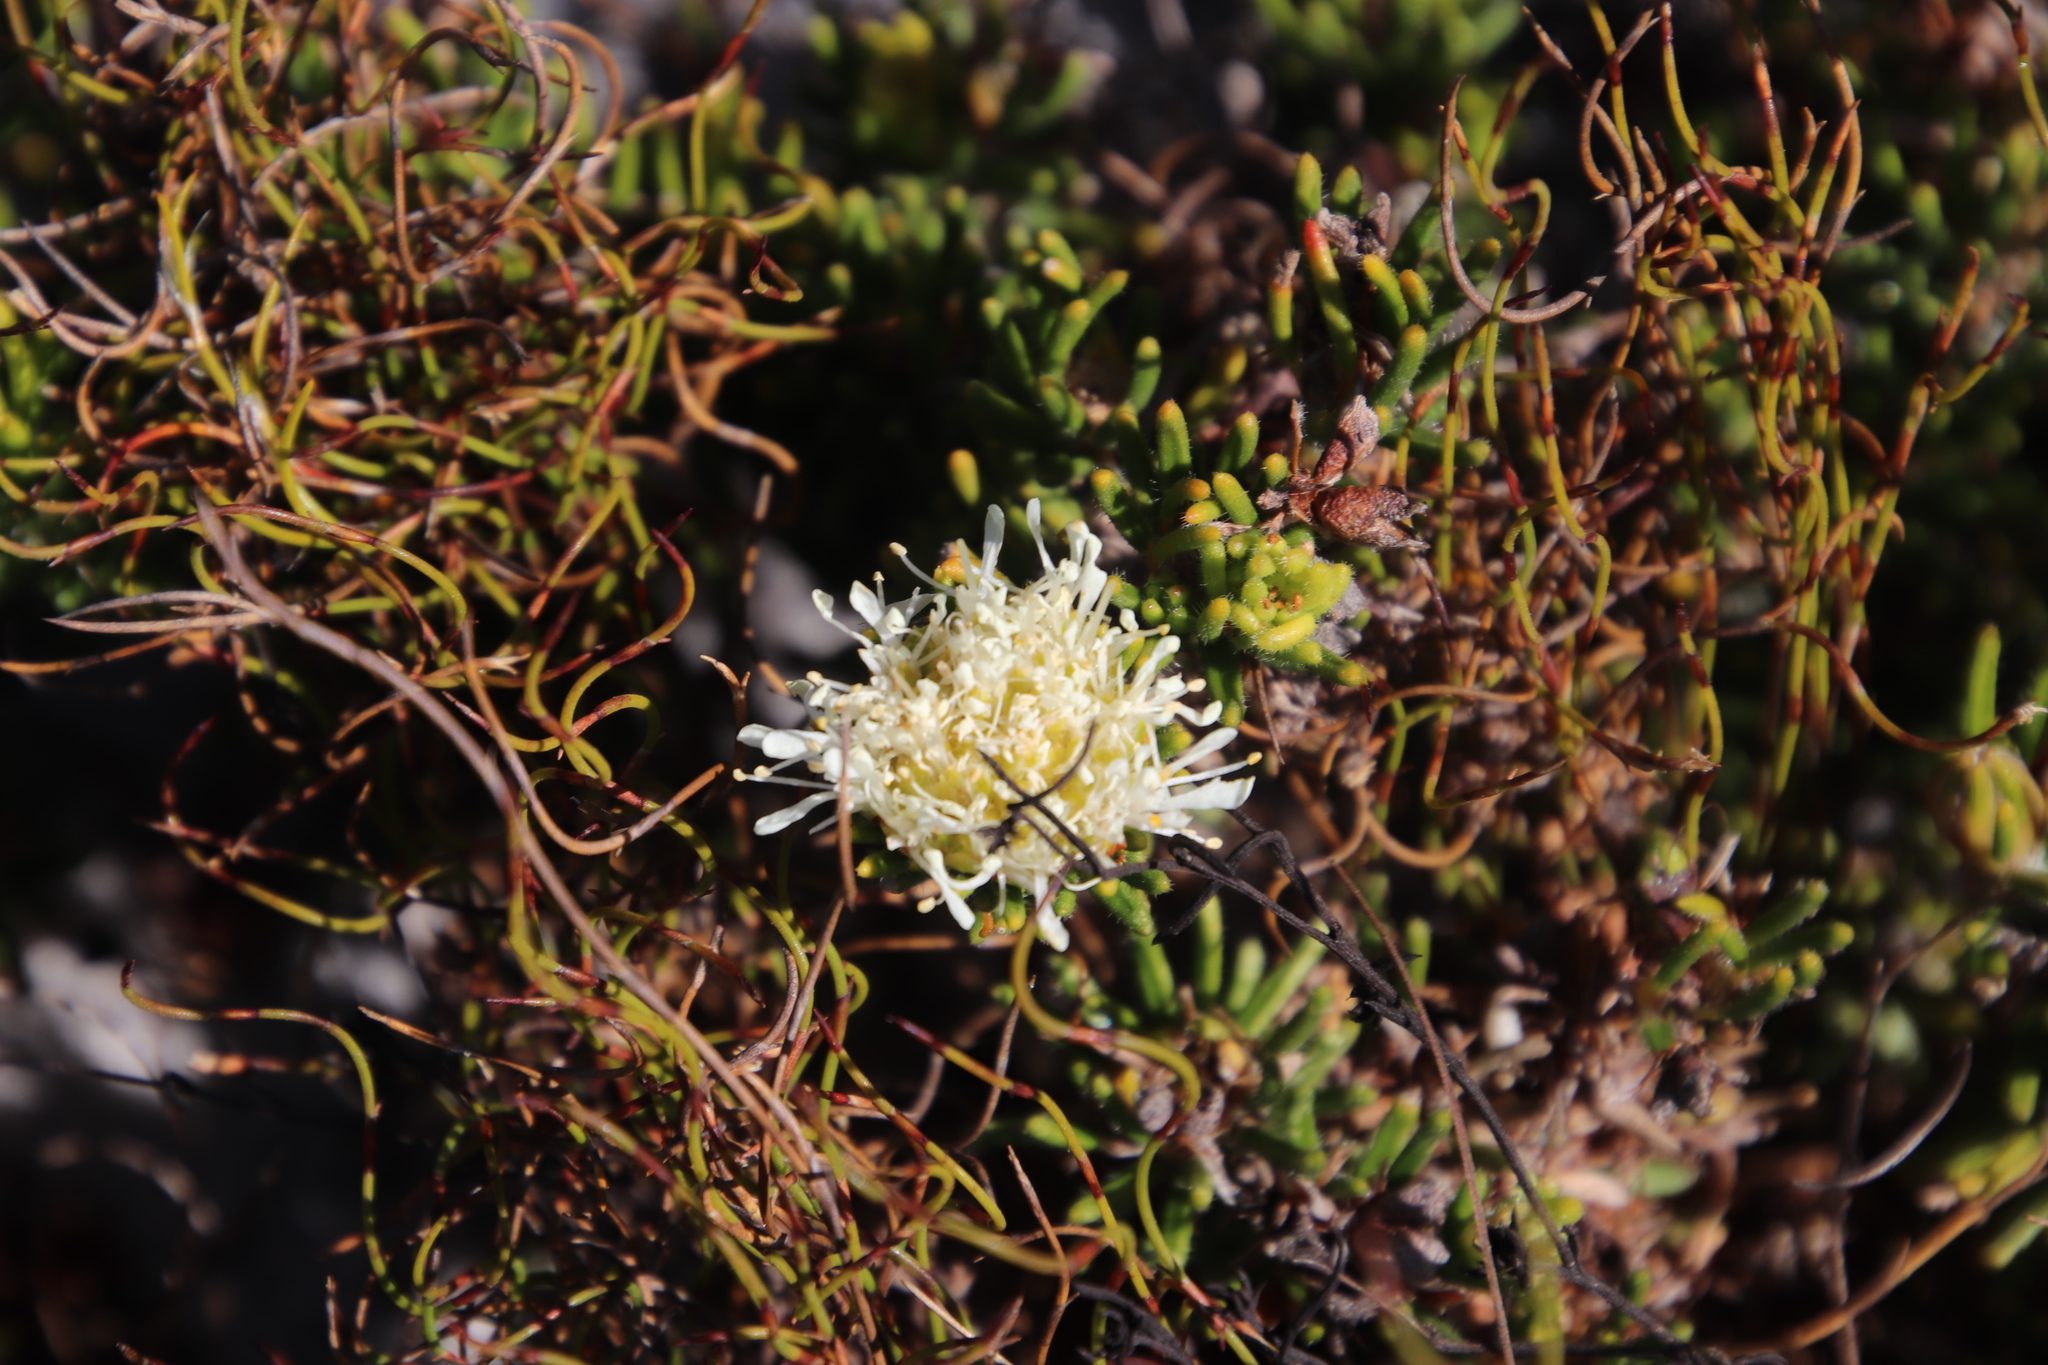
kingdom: Plantae
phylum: Tracheophyta
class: Magnoliopsida
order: Sapindales
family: Rutaceae
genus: Macrostylis
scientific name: Macrostylis villosa
